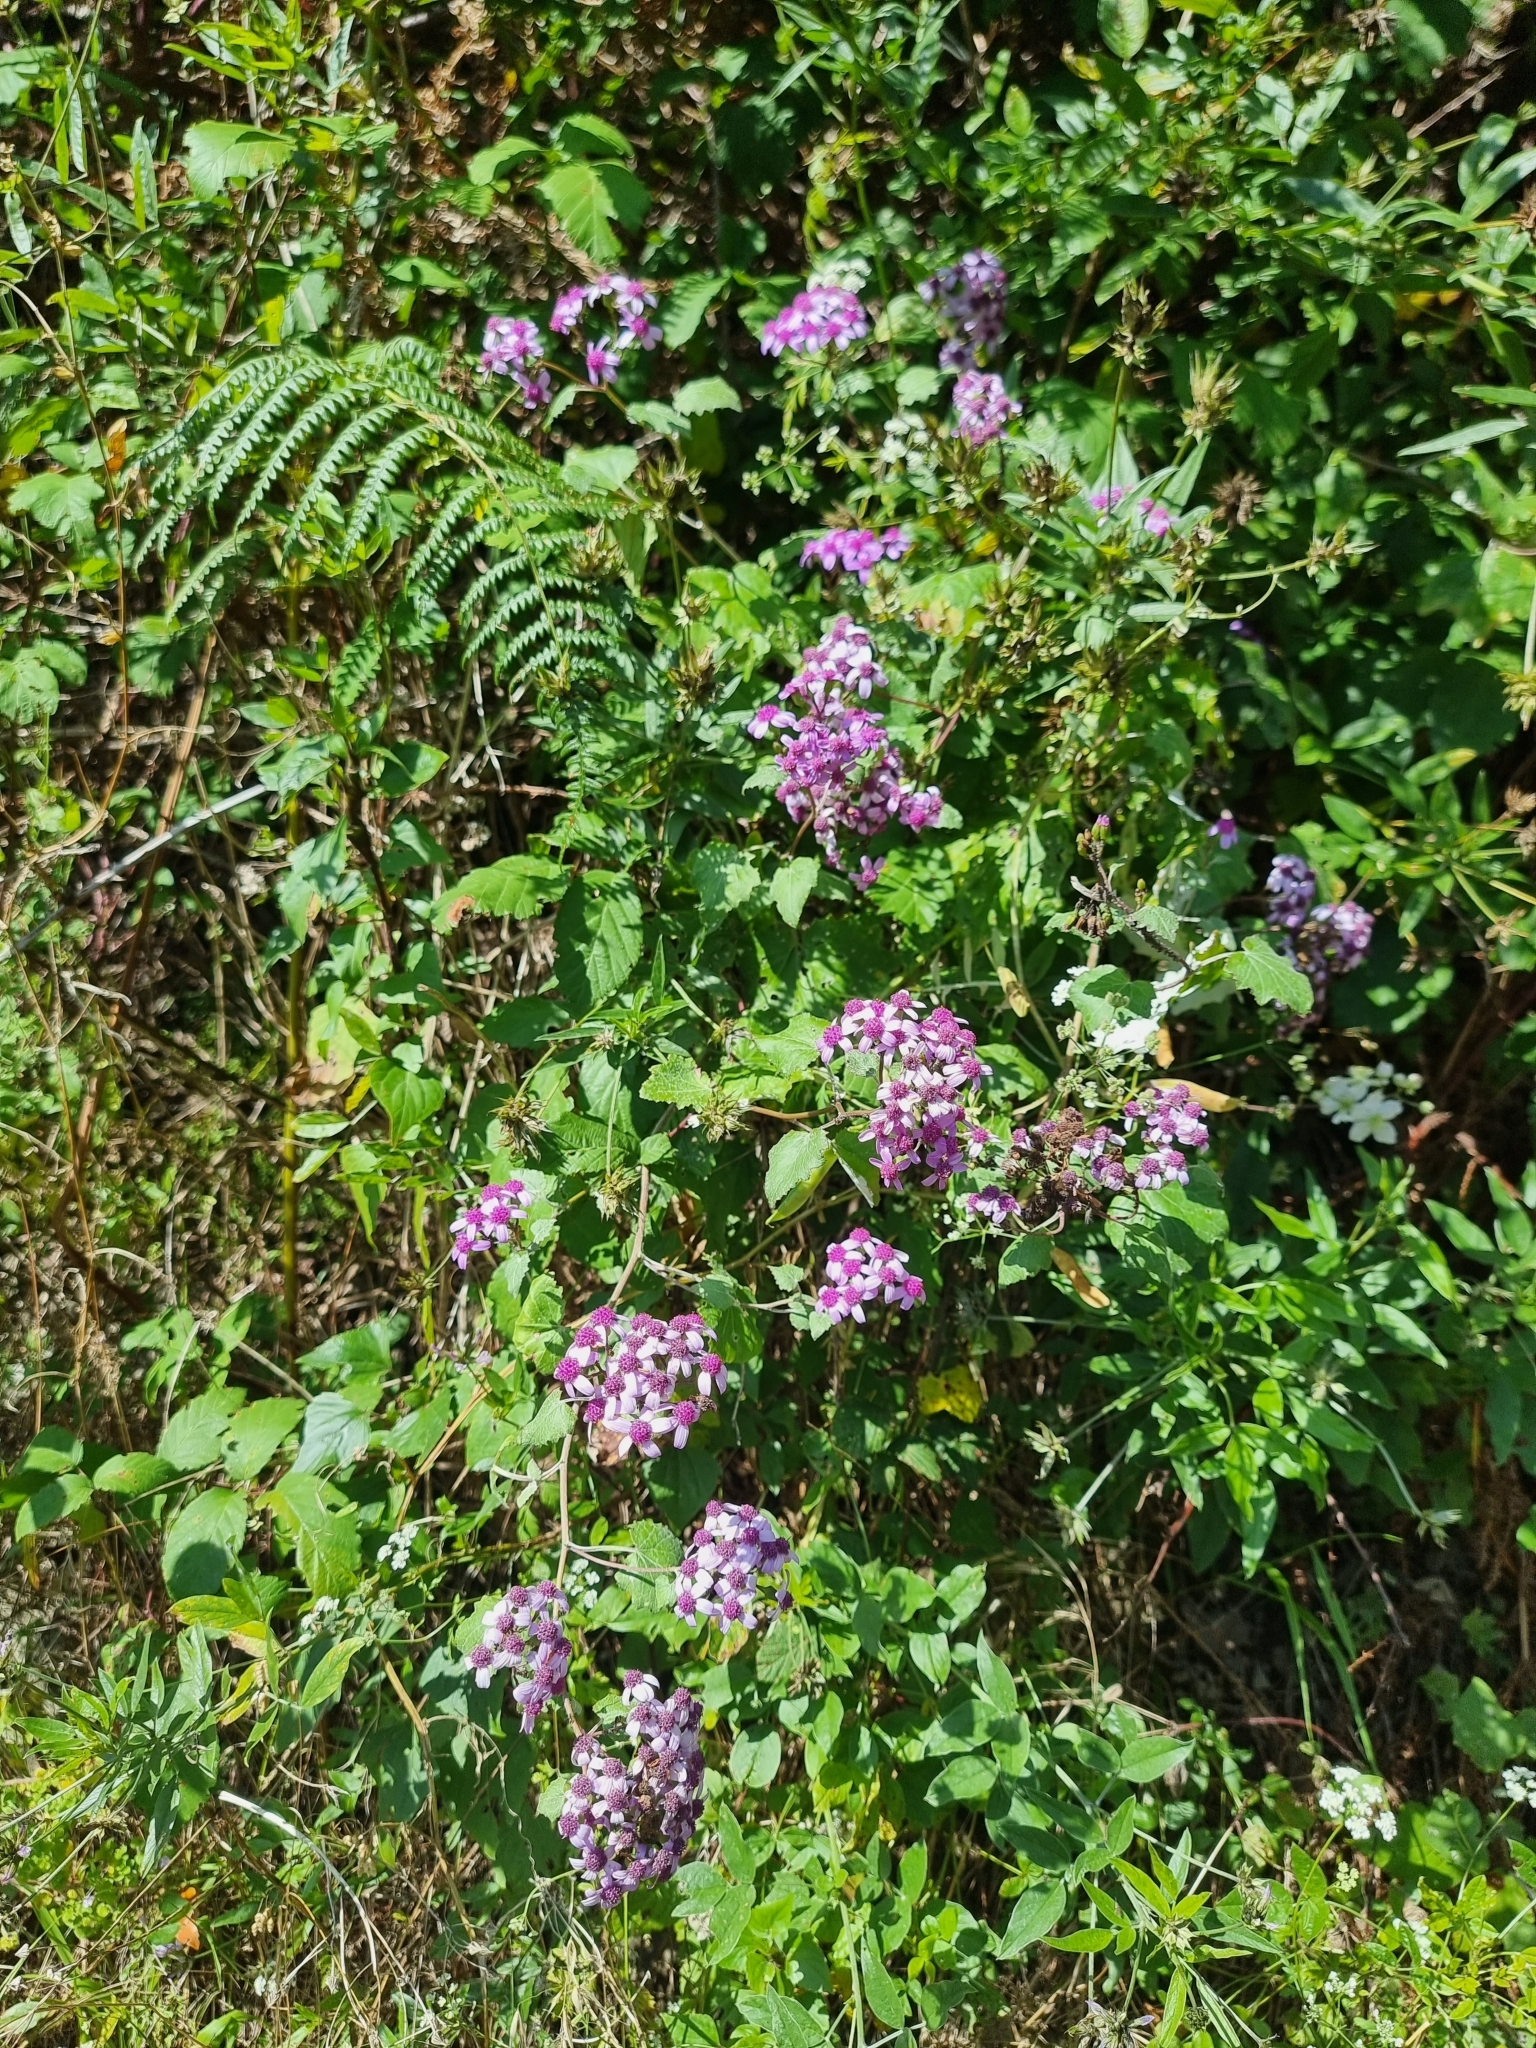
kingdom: Plantae
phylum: Tracheophyta
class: Magnoliopsida
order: Asterales
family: Asteraceae
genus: Pericallis
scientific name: Pericallis aurita
